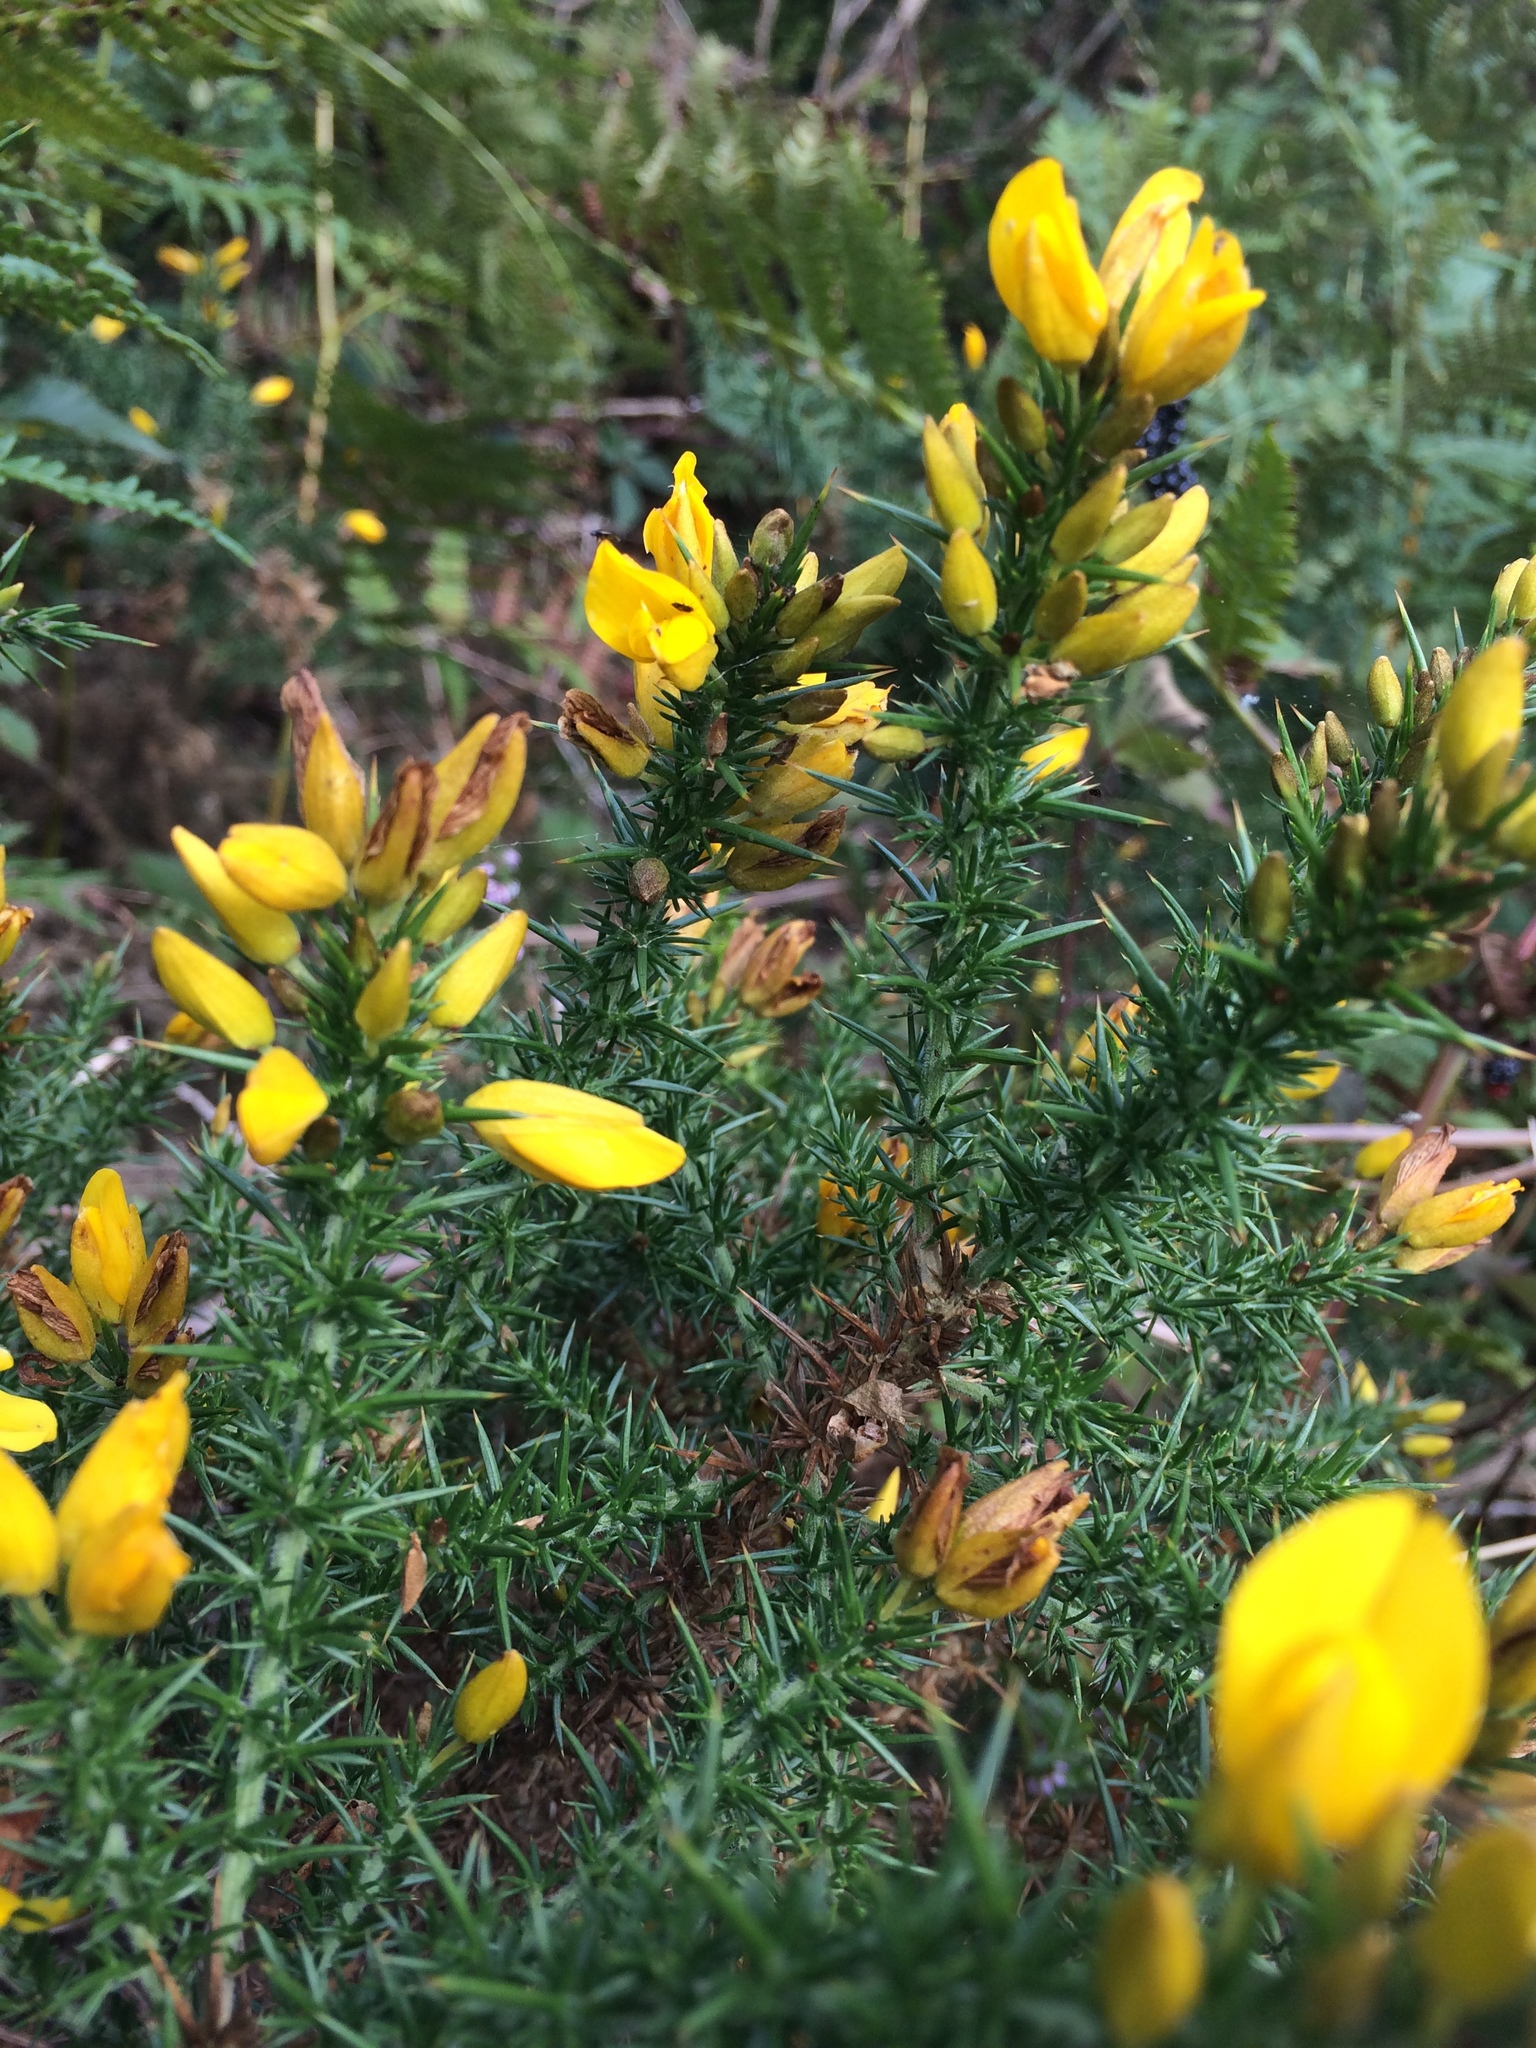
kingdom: Plantae
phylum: Tracheophyta
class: Magnoliopsida
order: Fabales
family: Fabaceae
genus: Ulex
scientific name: Ulex gallii
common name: Western gorse
